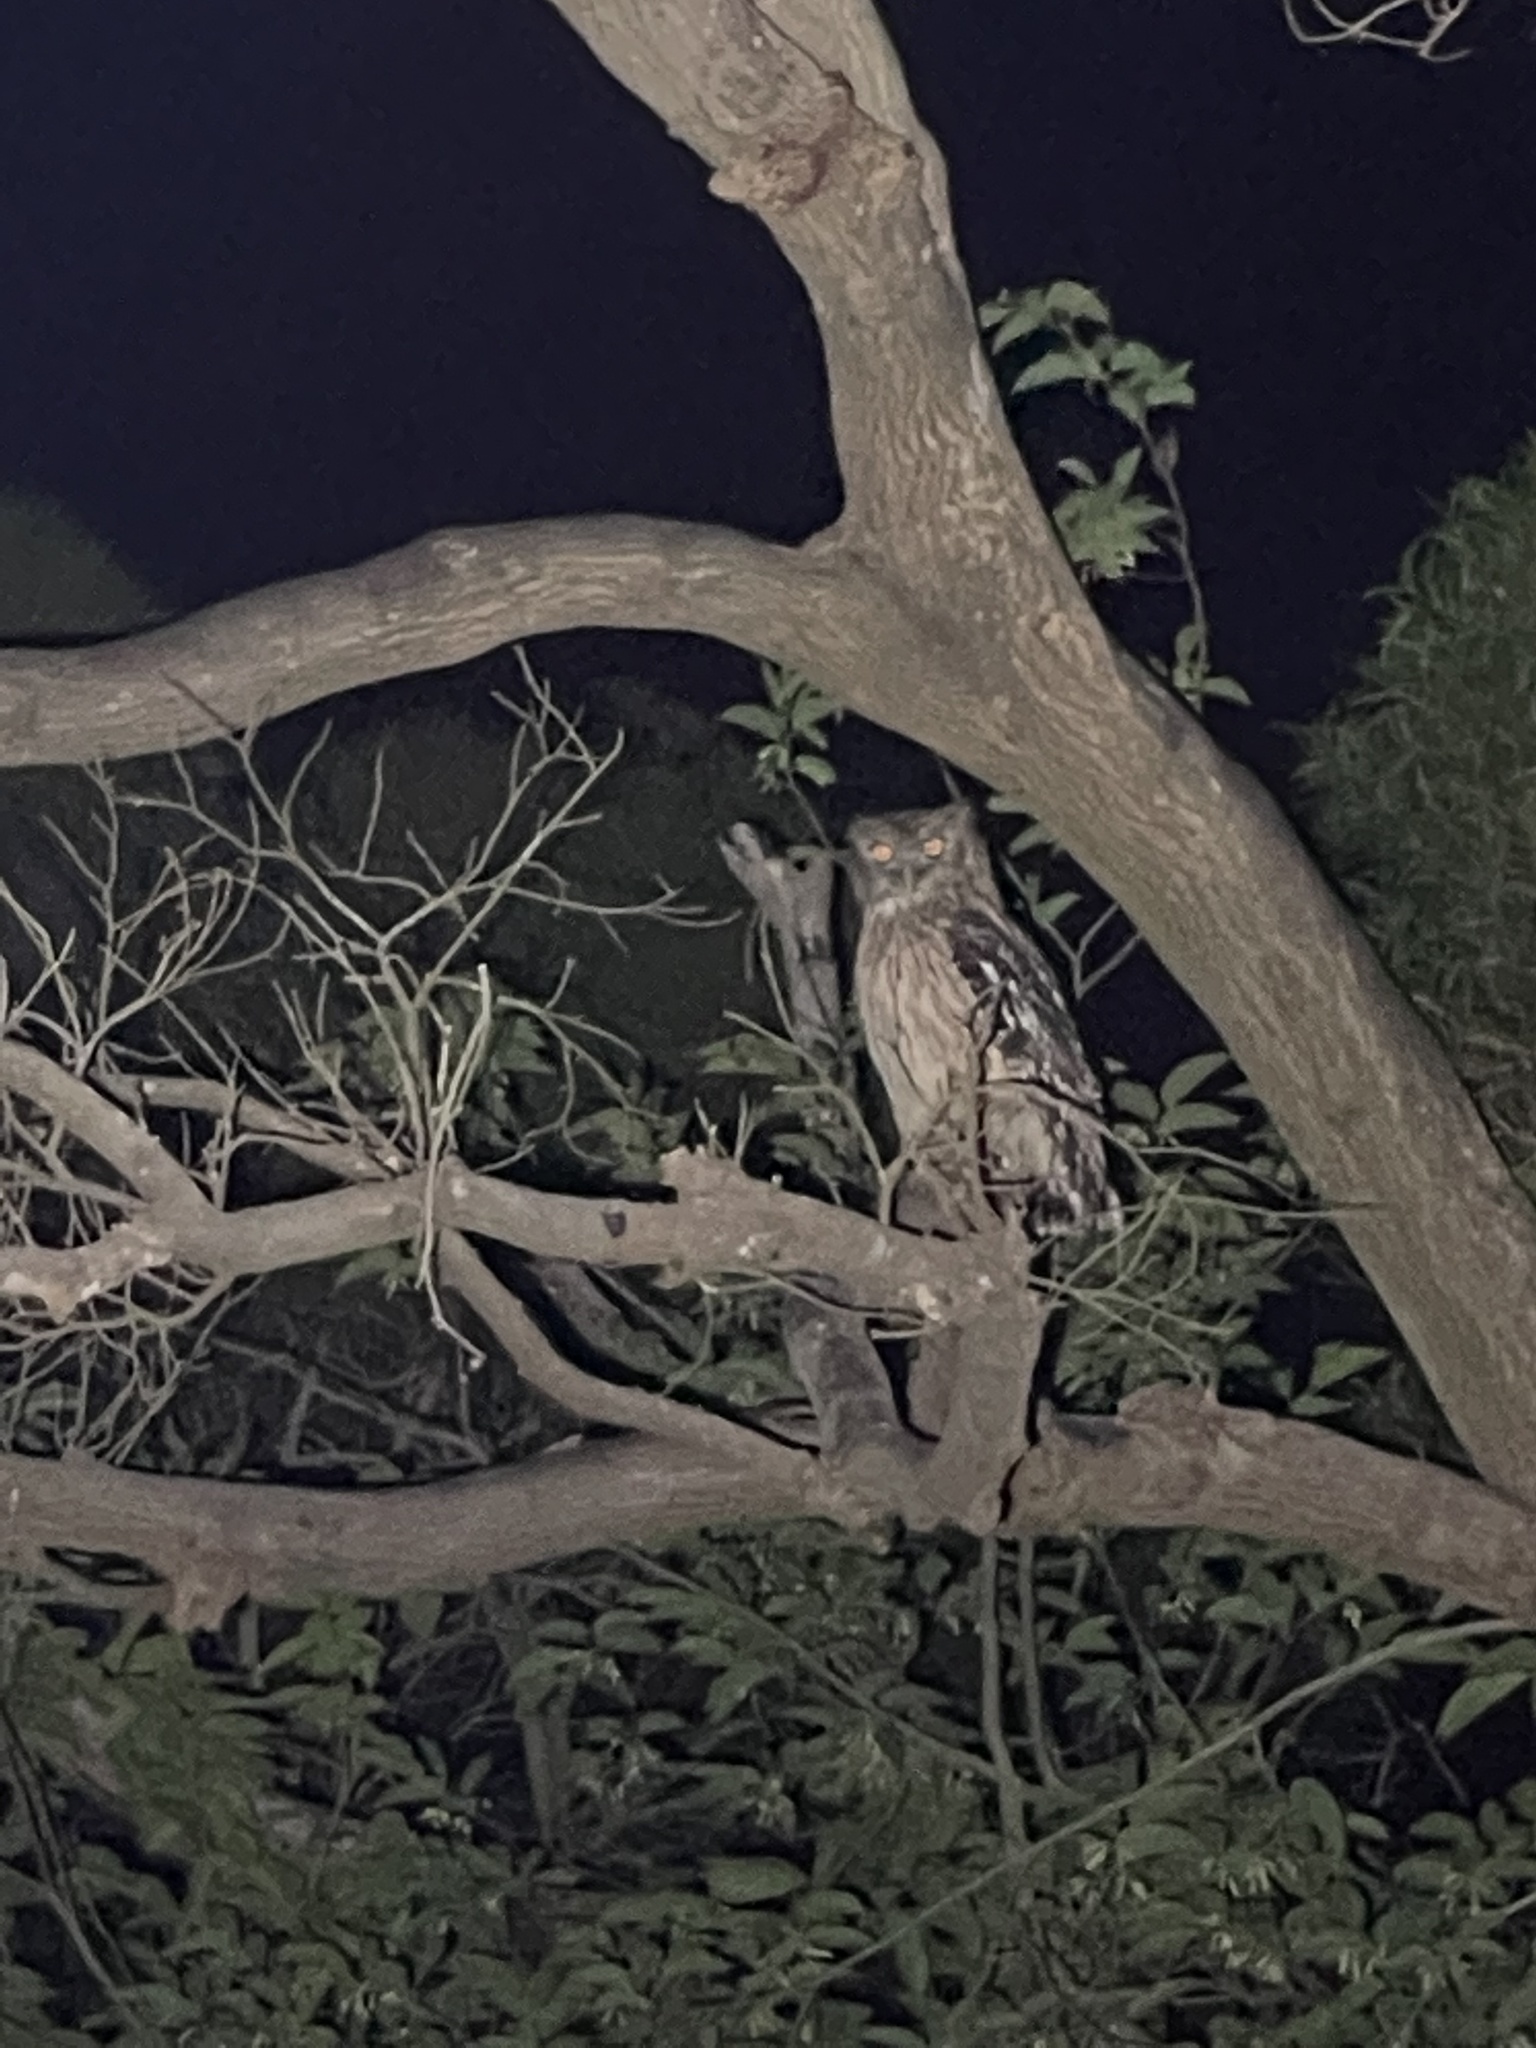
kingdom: Animalia
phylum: Chordata
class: Aves
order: Strigiformes
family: Strigidae
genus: Ketupa
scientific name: Ketupa zeylonensis
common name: Brown fish owl
